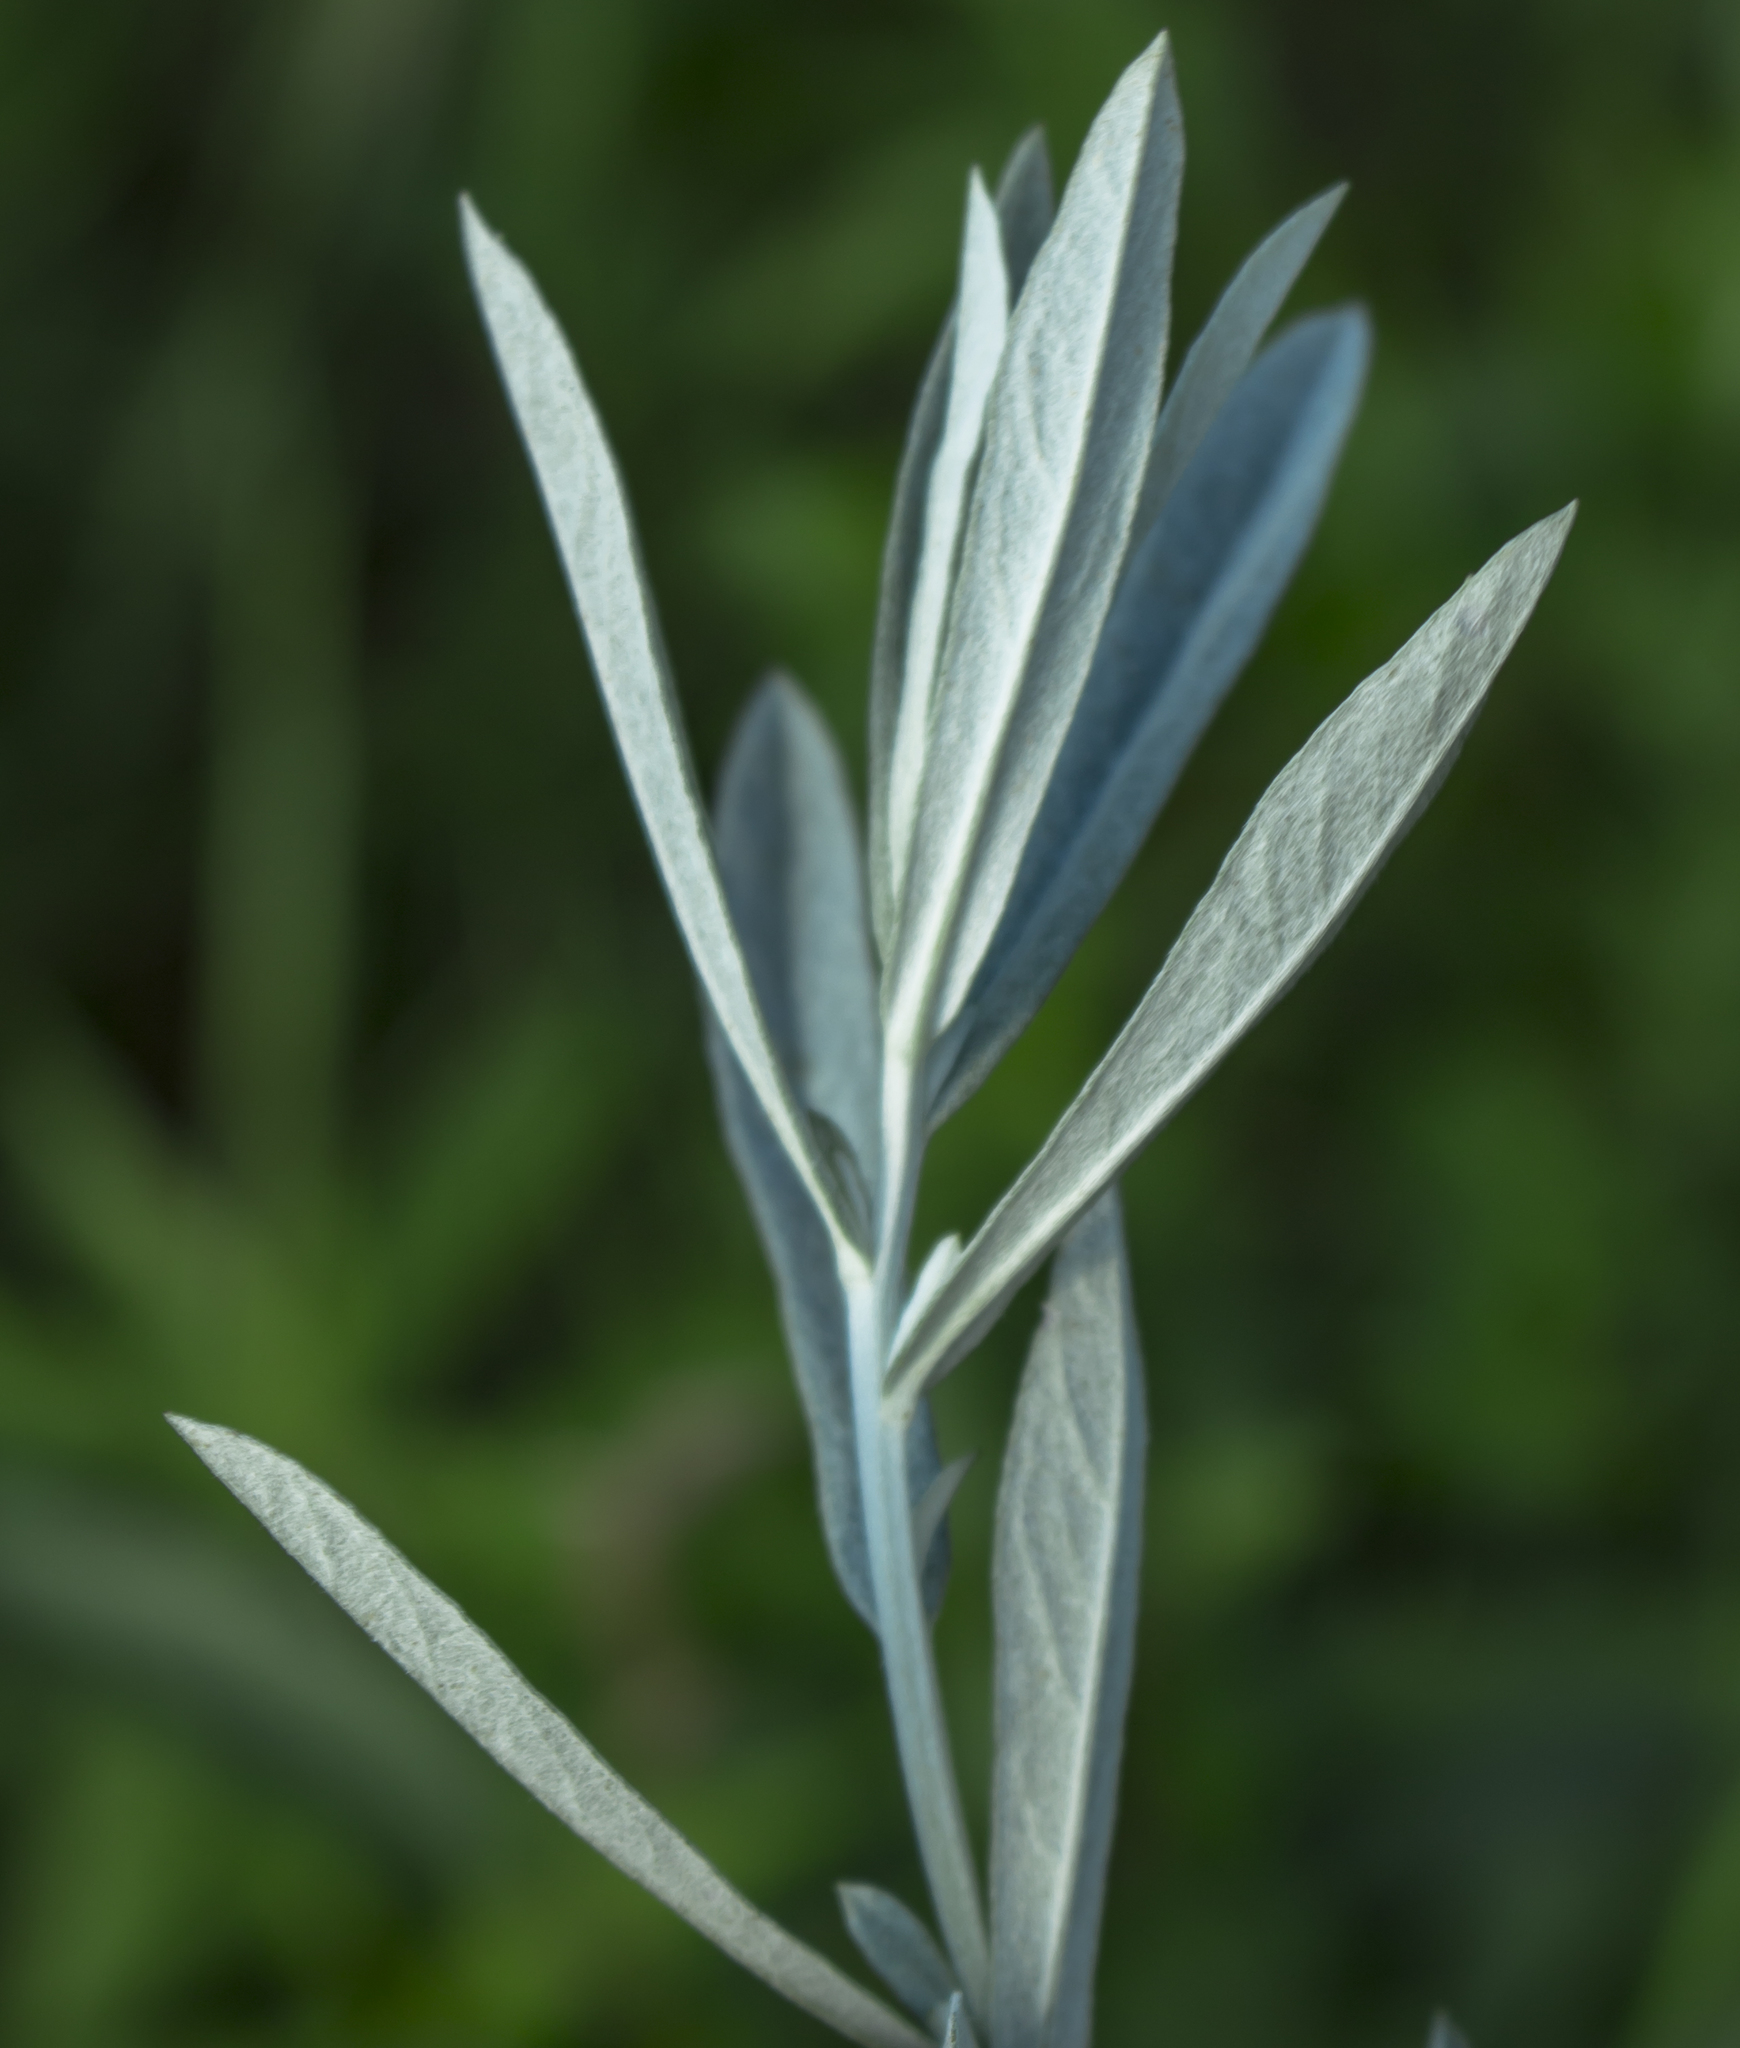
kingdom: Plantae
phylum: Tracheophyta
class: Magnoliopsida
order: Asterales
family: Asteraceae
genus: Artemisia
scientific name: Artemisia ludoviciana
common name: Western mugwort
